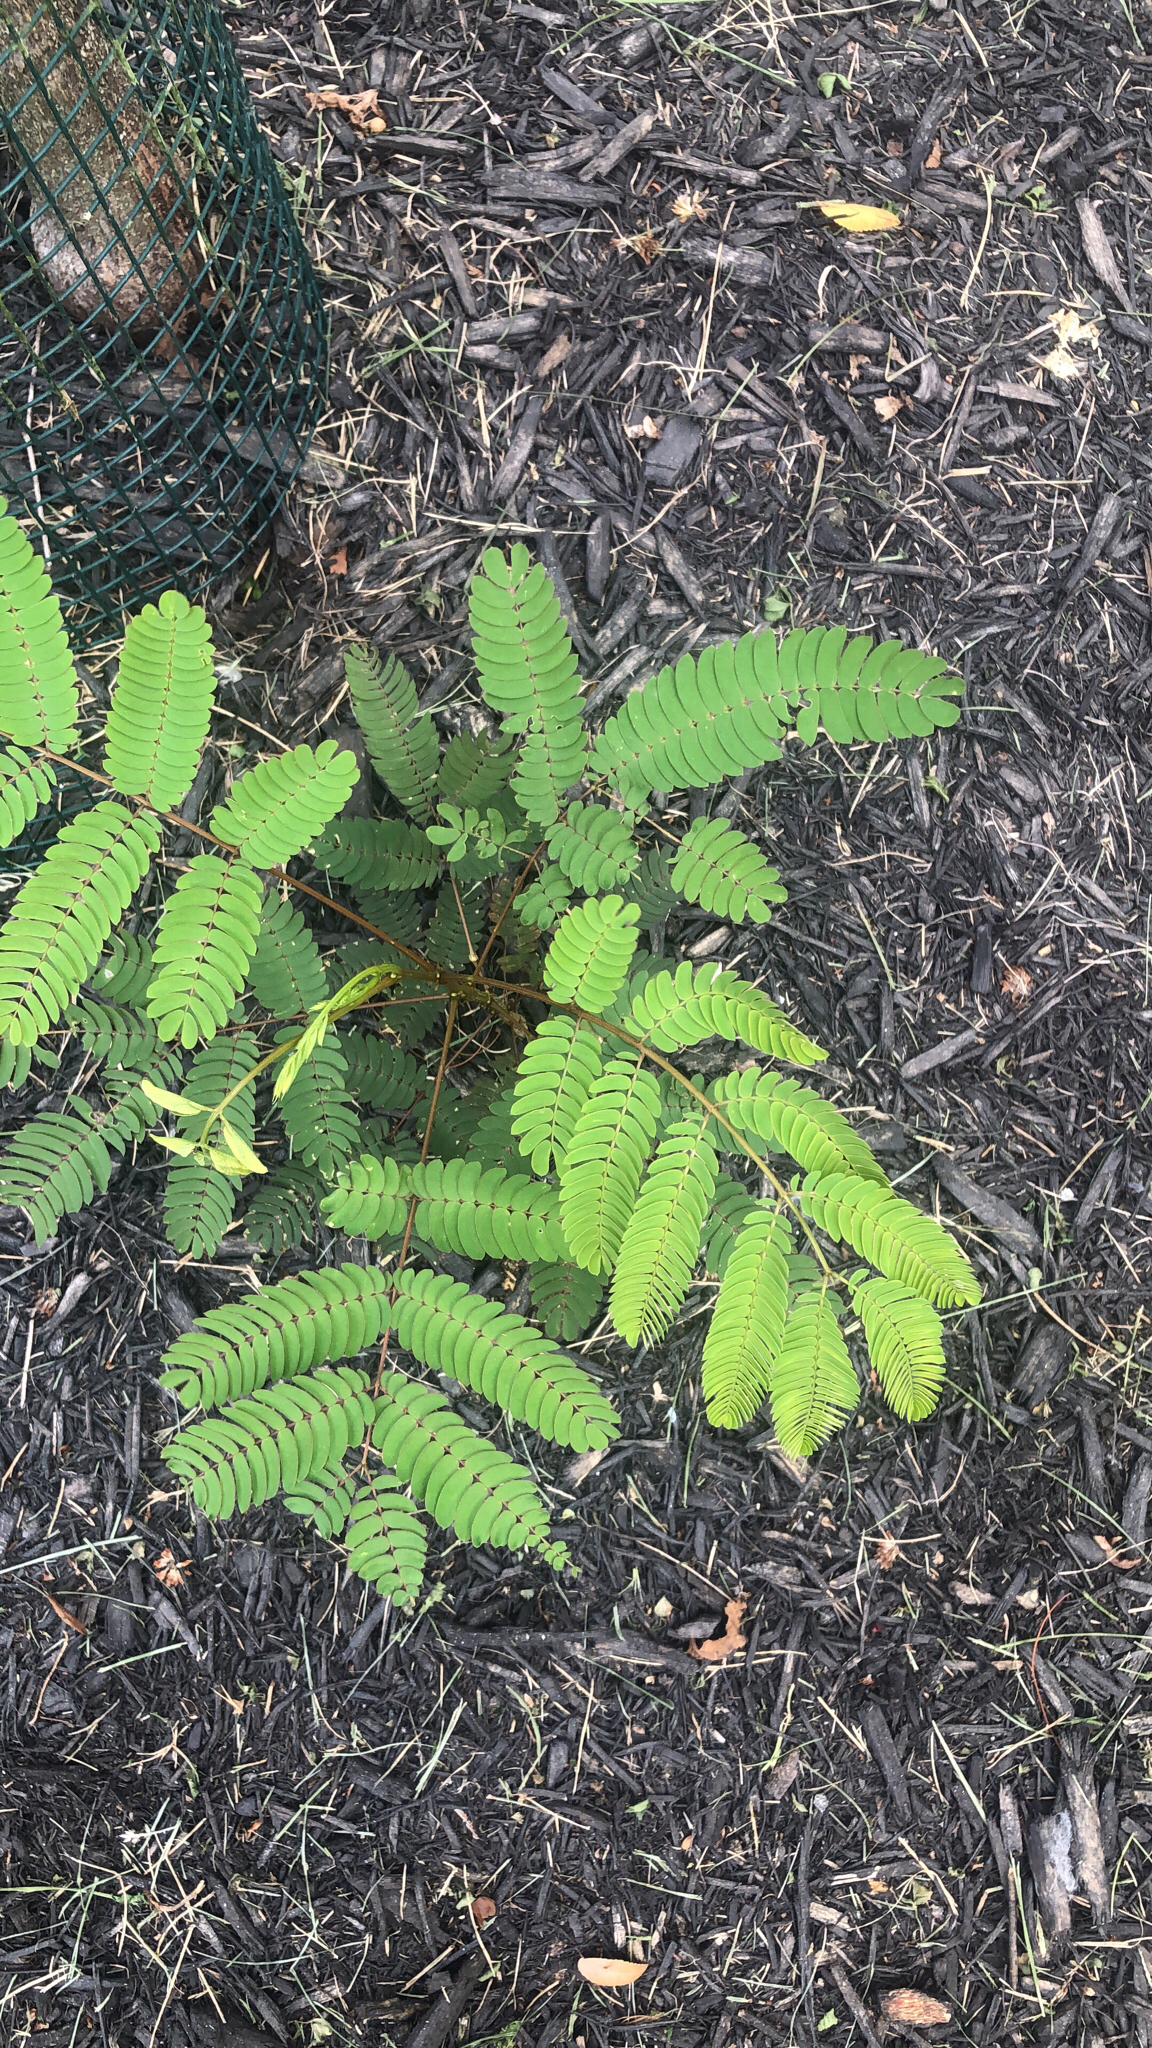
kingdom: Plantae
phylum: Tracheophyta
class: Magnoliopsida
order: Fabales
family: Fabaceae
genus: Albizia
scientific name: Albizia julibrissin
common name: Silktree
